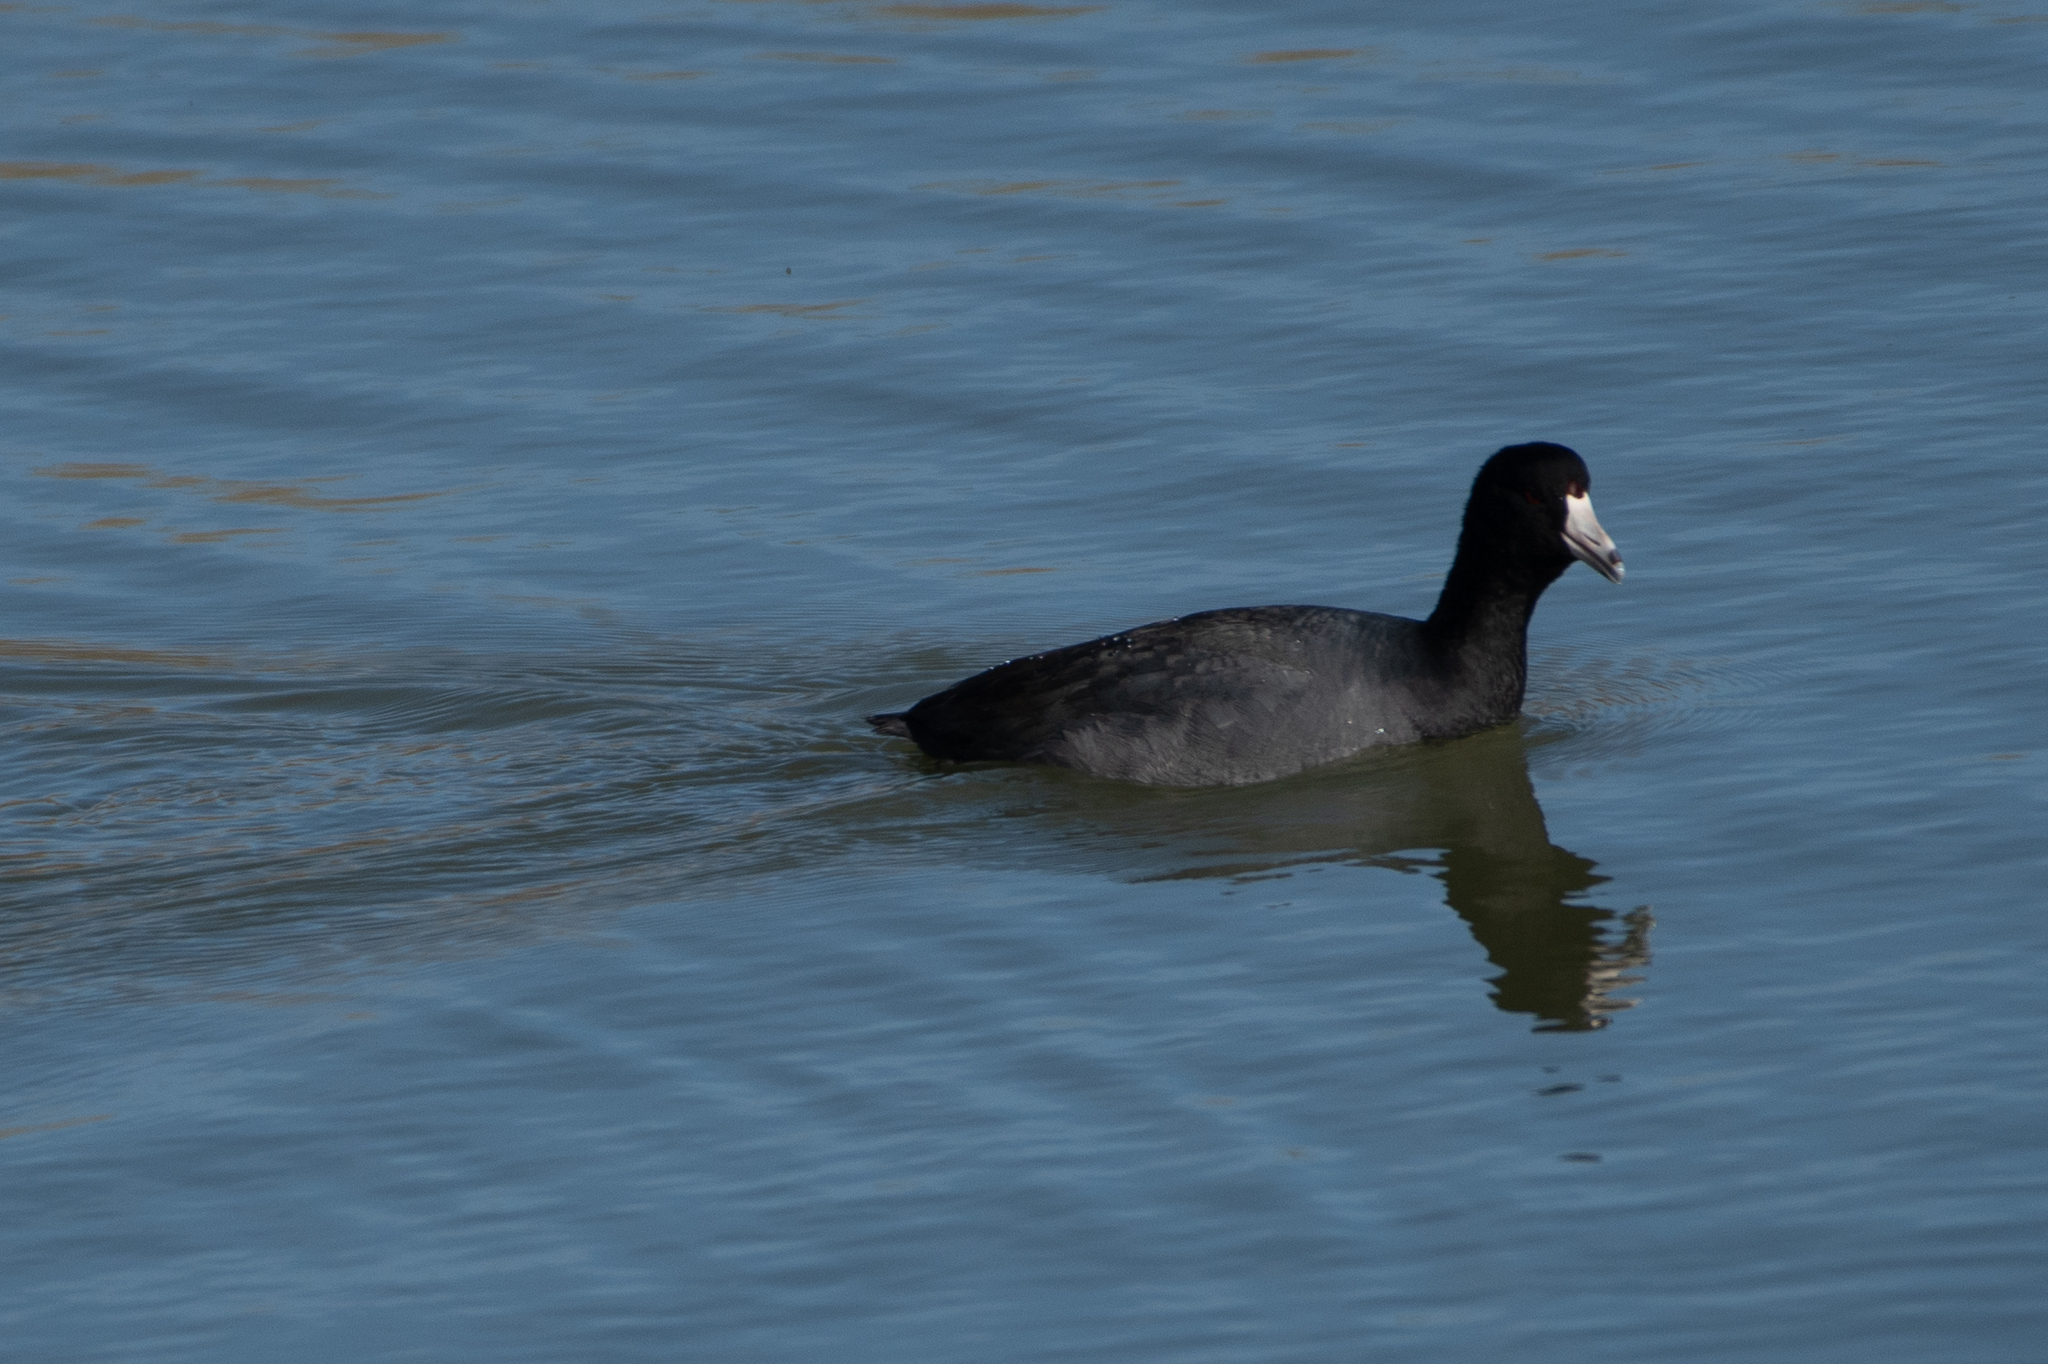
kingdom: Animalia
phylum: Chordata
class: Aves
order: Gruiformes
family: Rallidae
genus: Fulica
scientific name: Fulica americana
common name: American coot
